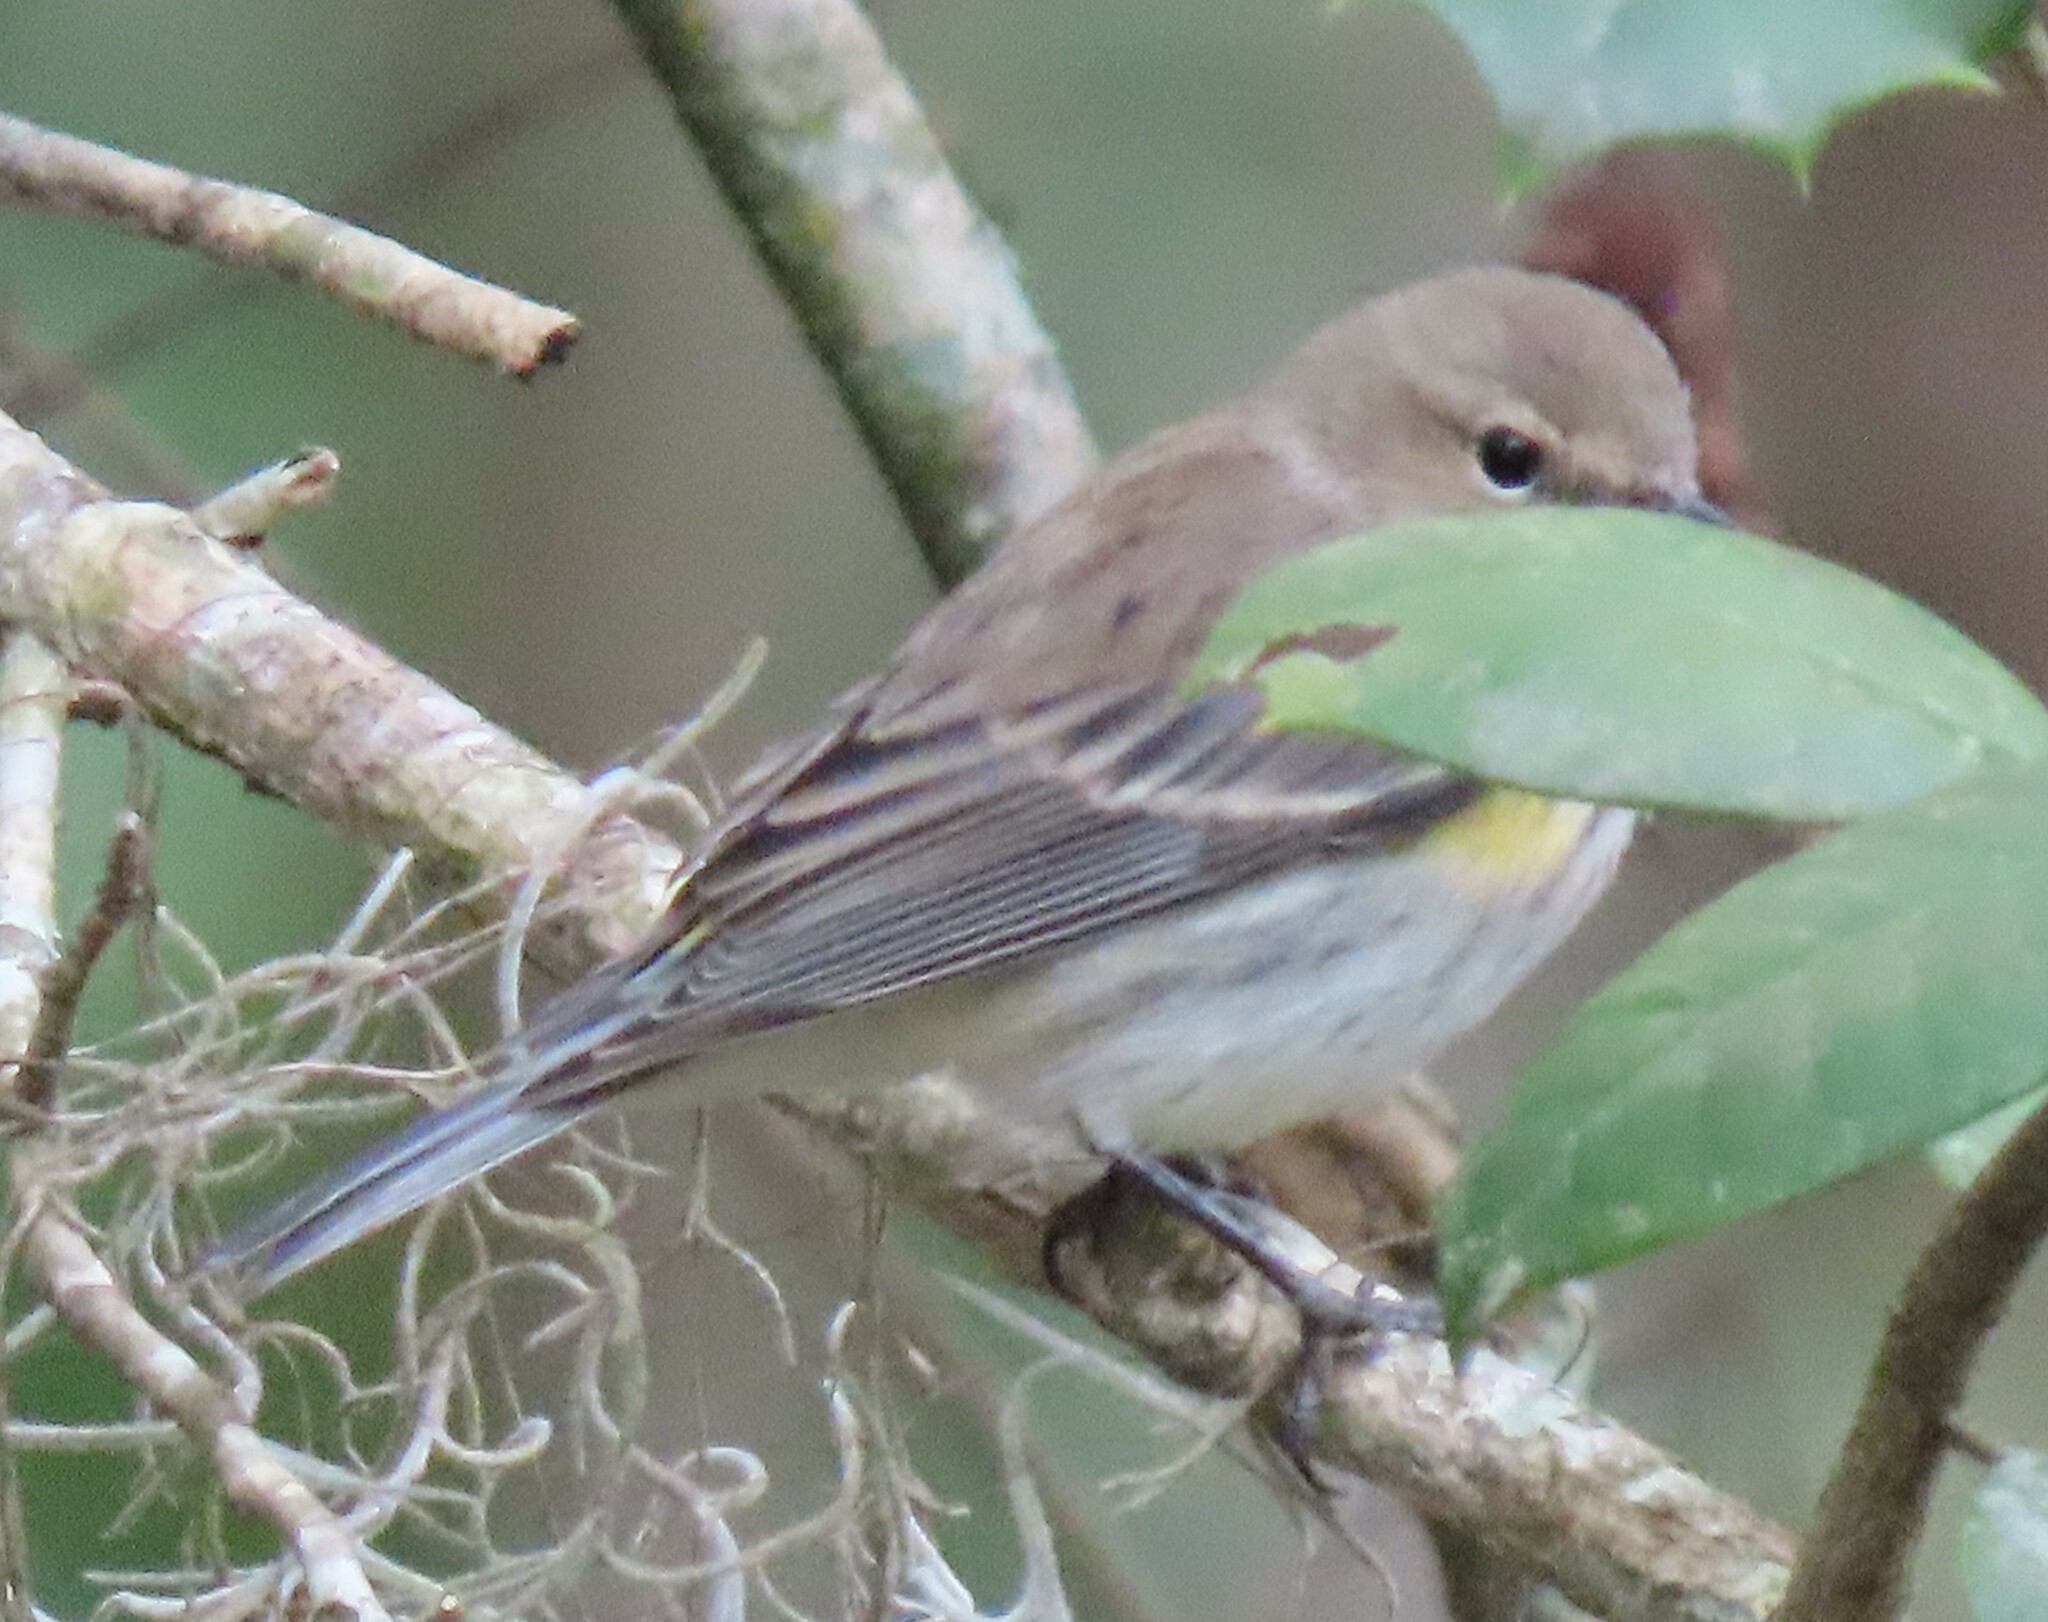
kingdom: Animalia
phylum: Chordata
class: Aves
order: Passeriformes
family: Parulidae
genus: Setophaga
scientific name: Setophaga coronata
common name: Myrtle warbler
